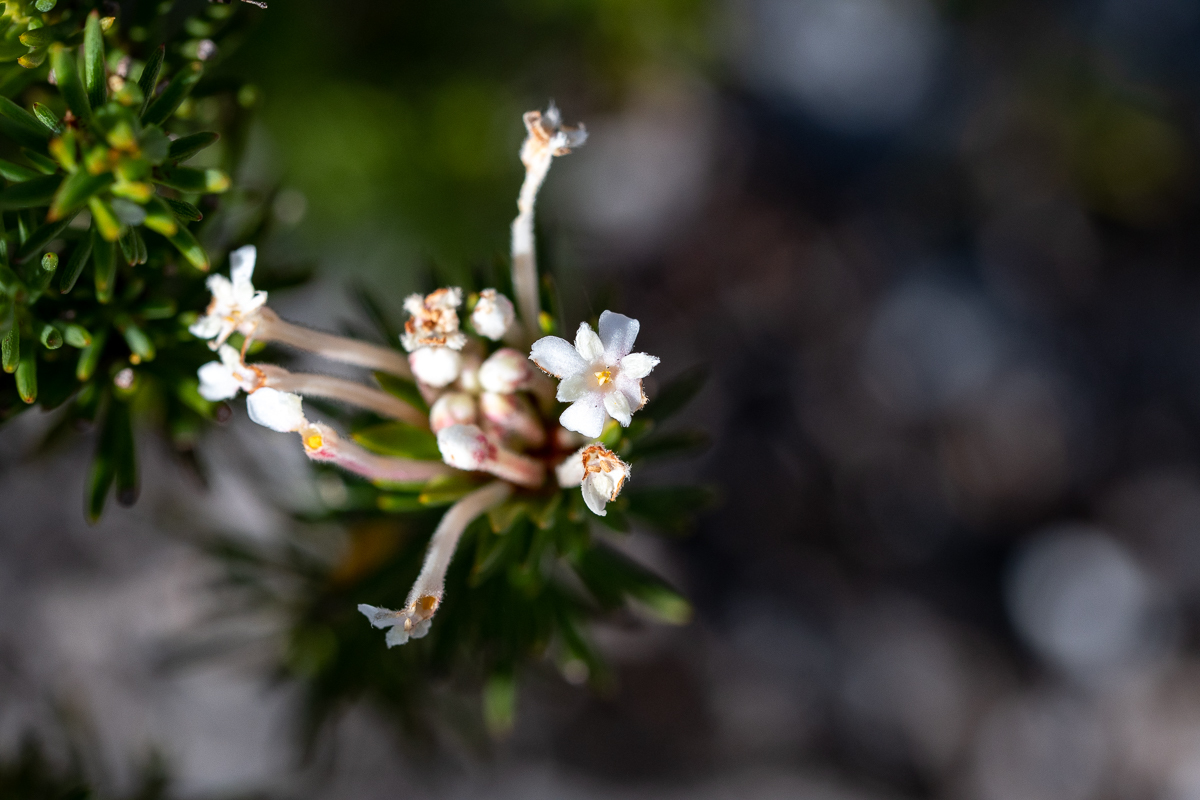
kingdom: Plantae
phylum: Tracheophyta
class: Magnoliopsida
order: Malvales
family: Thymelaeaceae
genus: Gnidia
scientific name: Gnidia pinifolia
